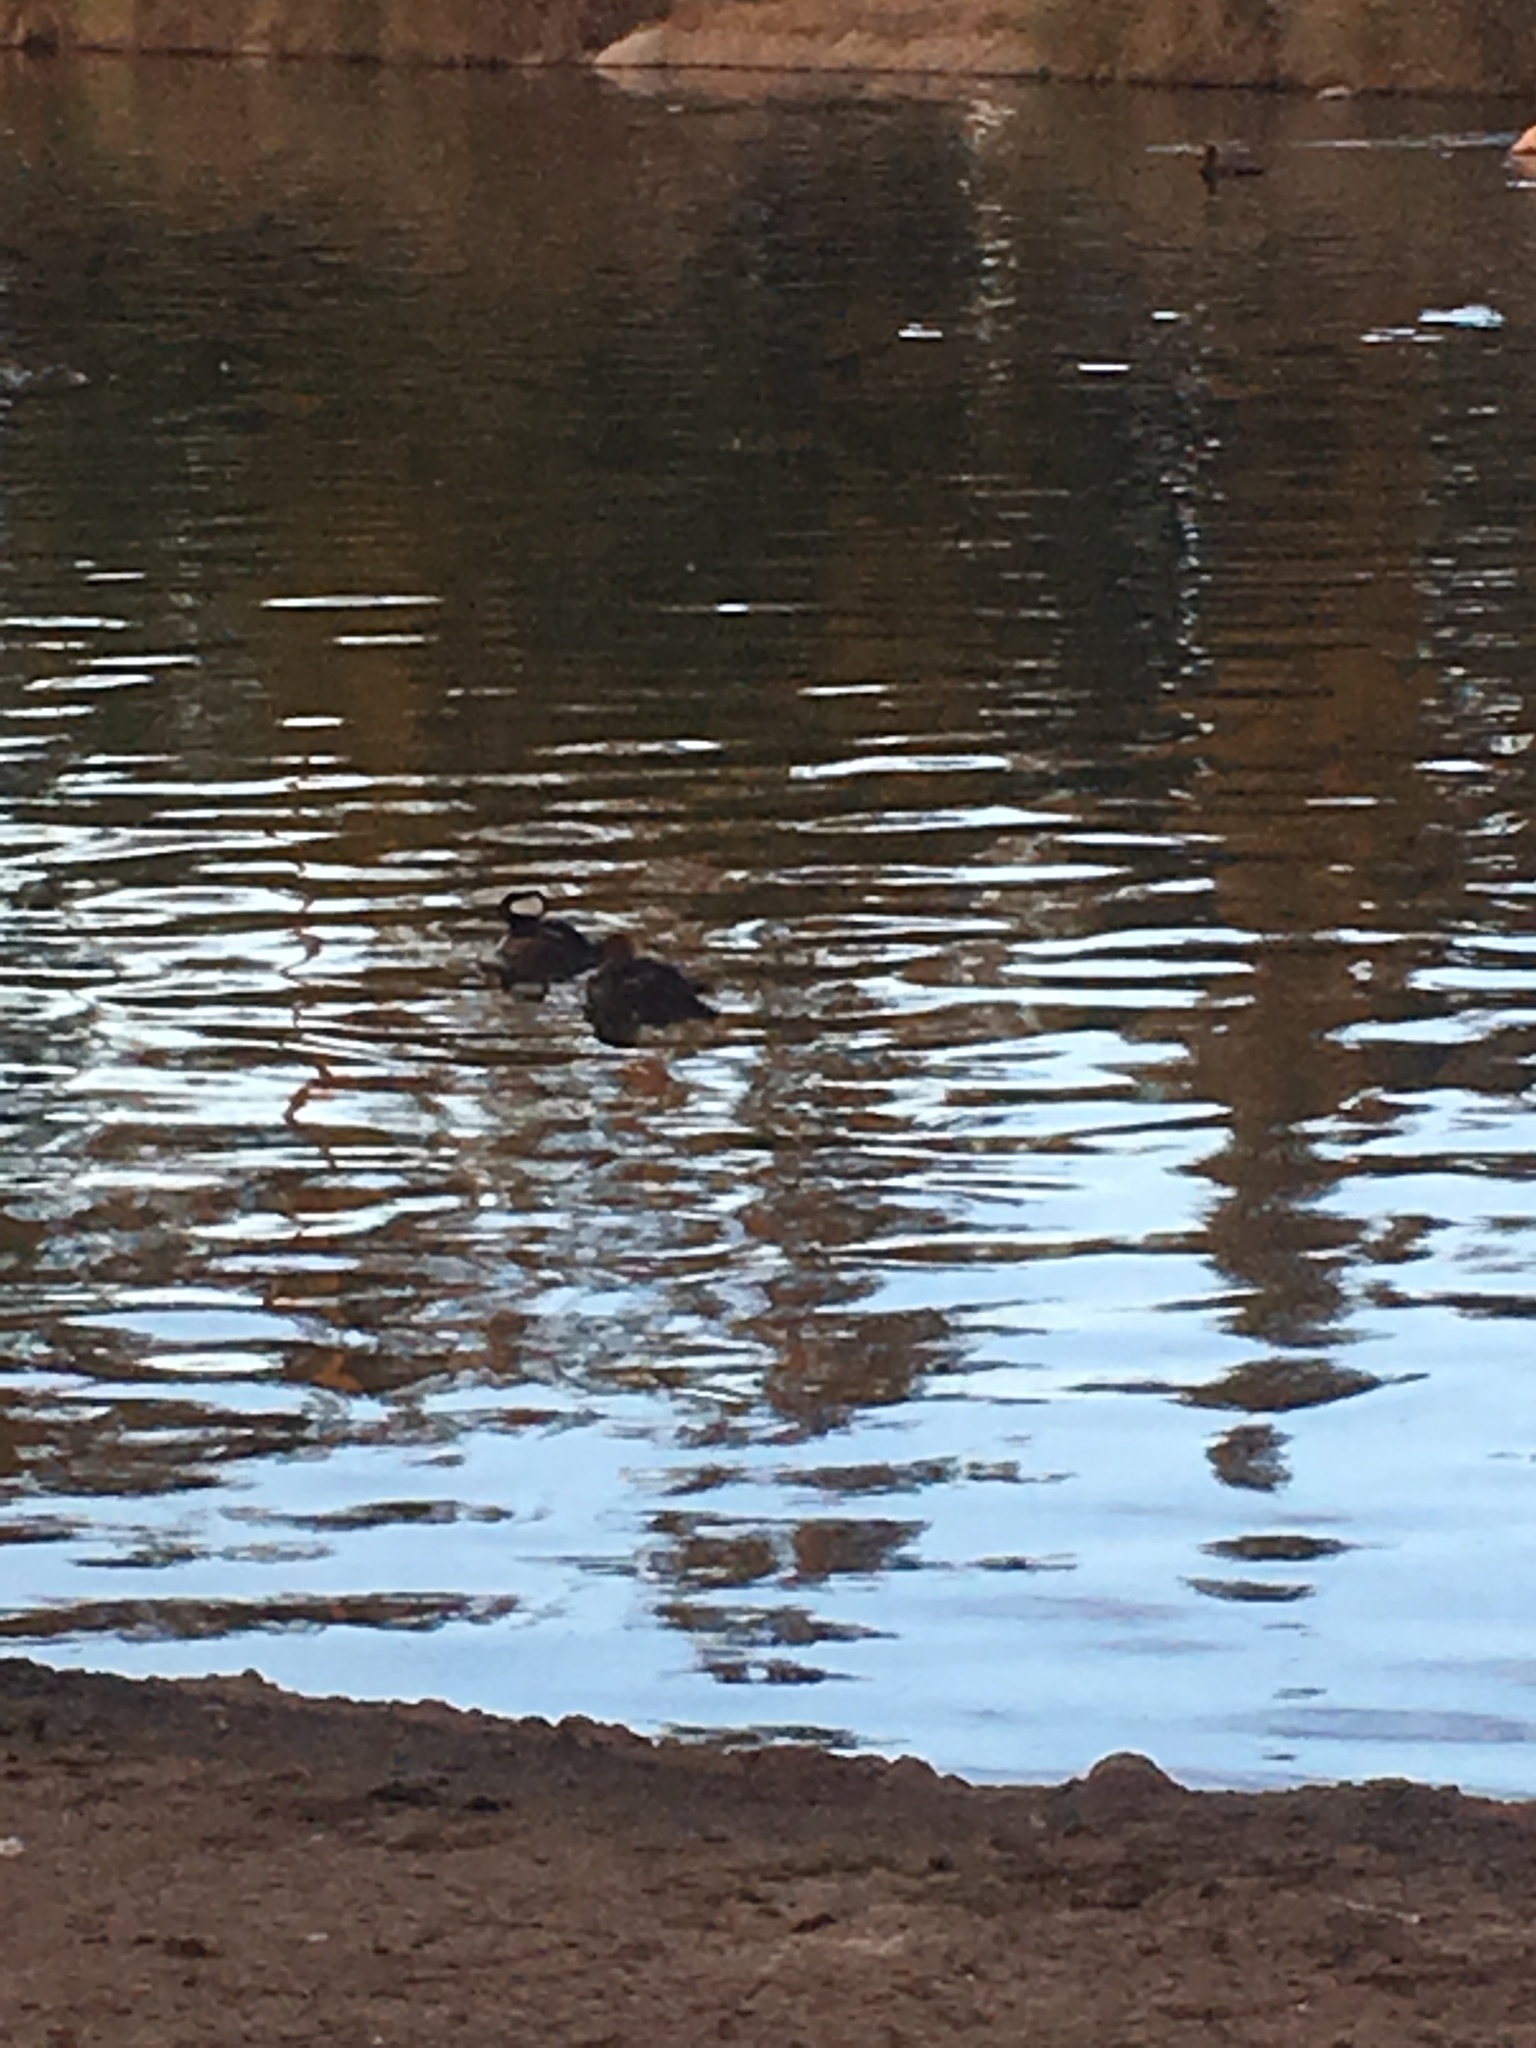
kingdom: Animalia
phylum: Chordata
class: Aves
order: Anseriformes
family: Anatidae
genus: Lophodytes
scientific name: Lophodytes cucullatus
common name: Hooded merganser
